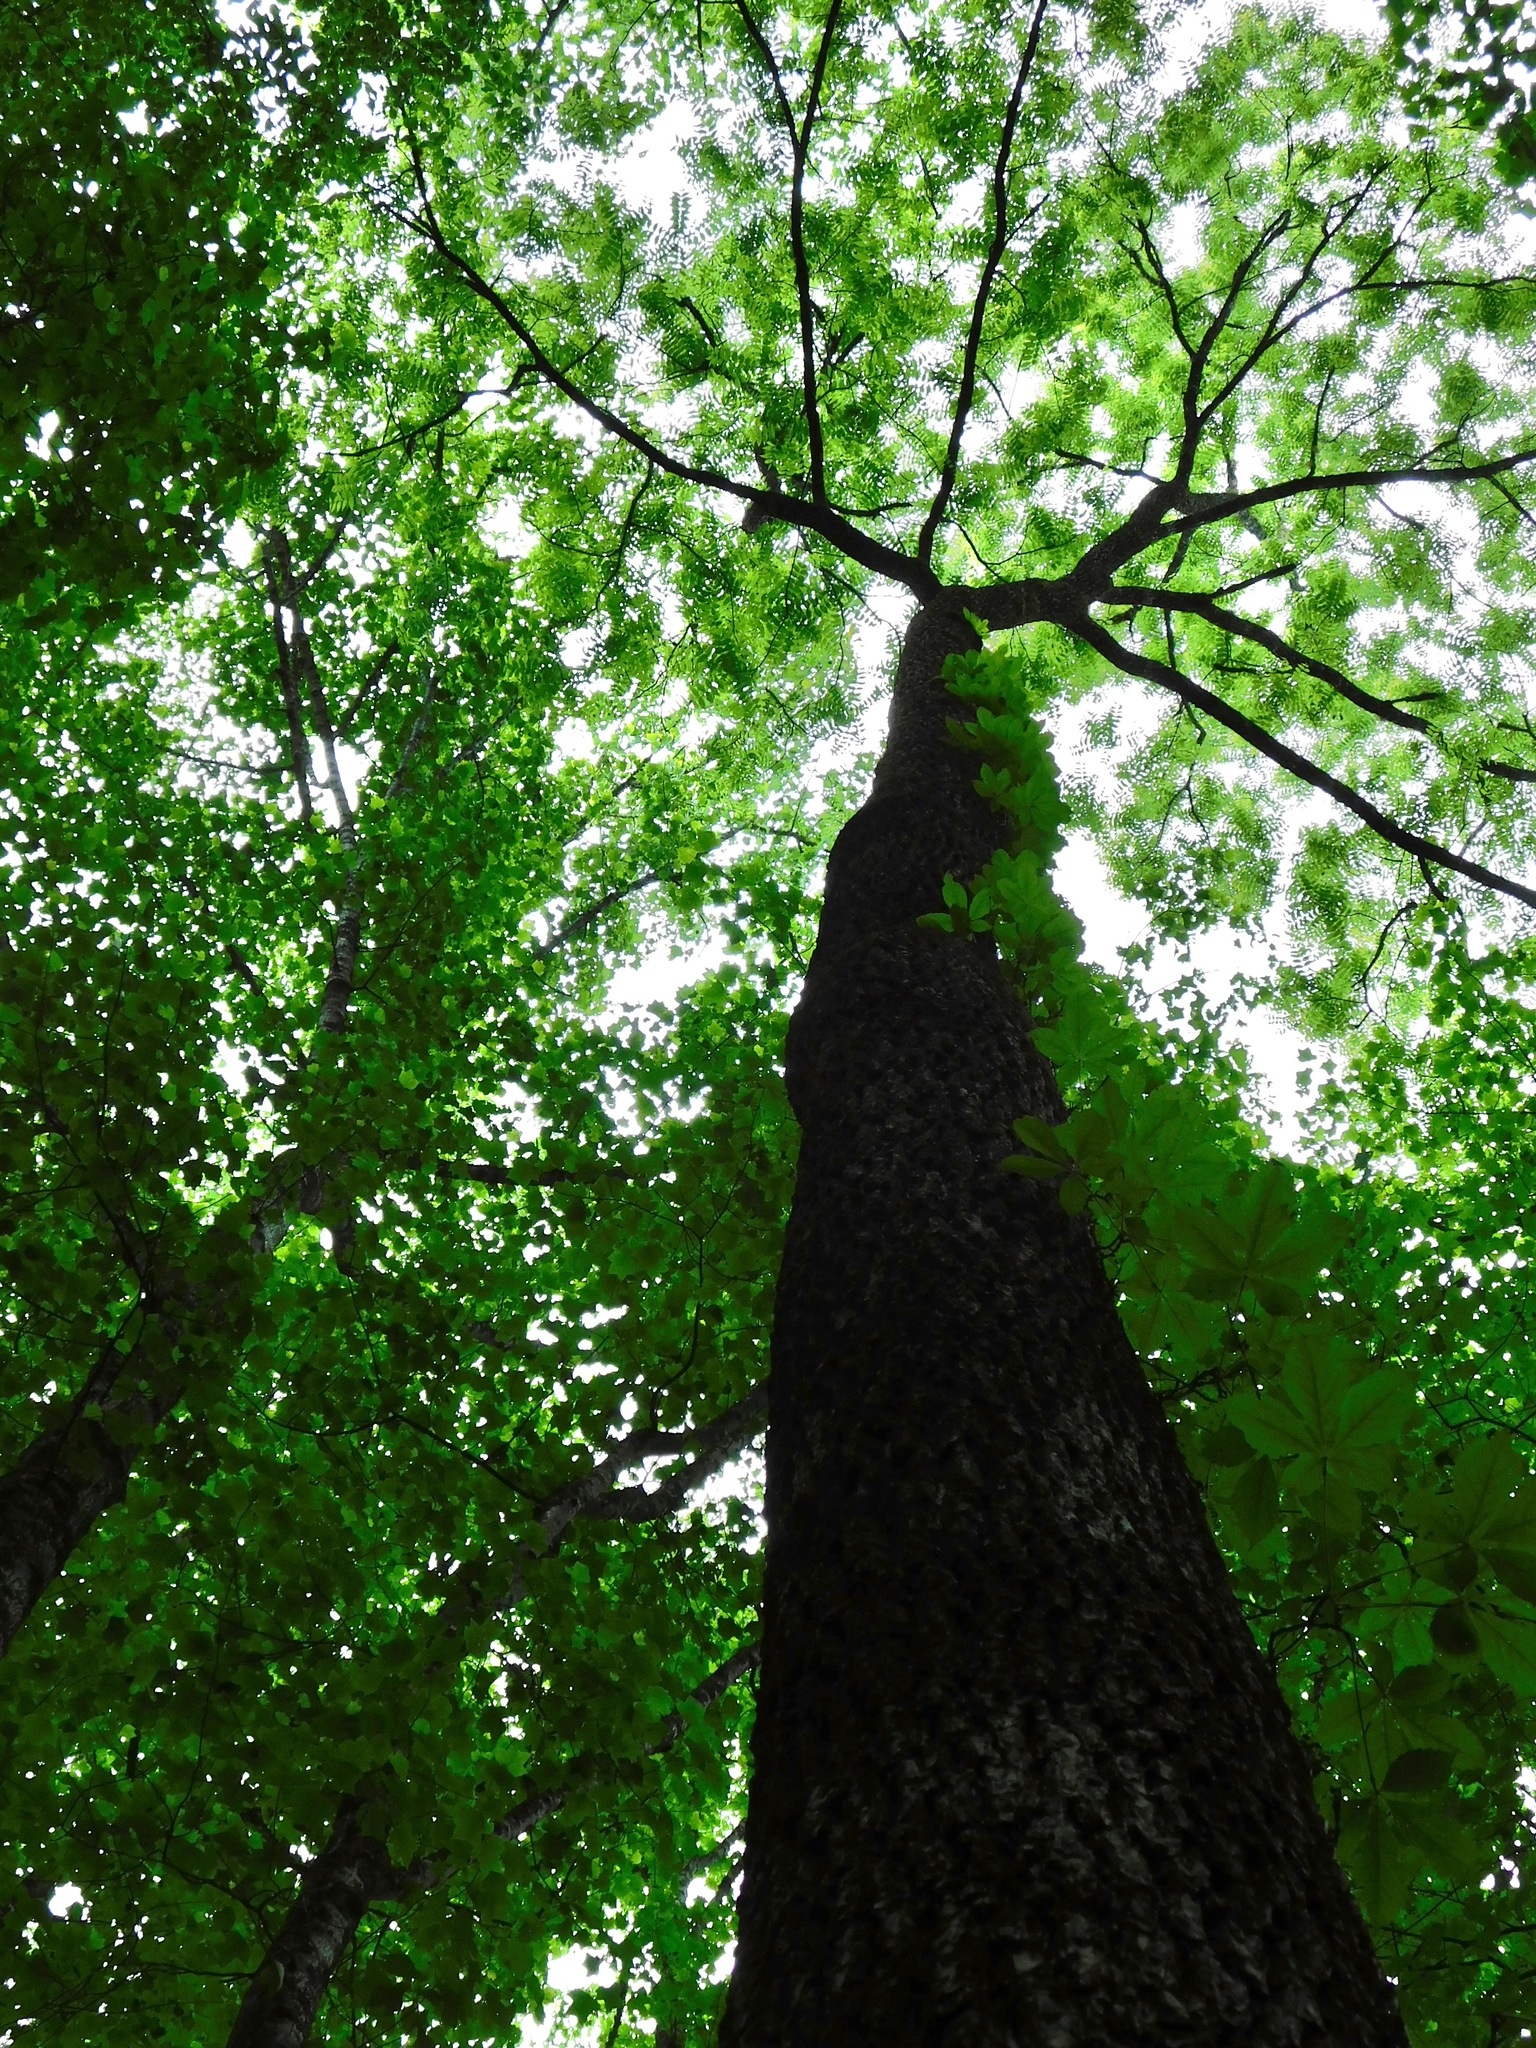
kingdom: Plantae
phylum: Tracheophyta
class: Magnoliopsida
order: Vitales
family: Vitaceae
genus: Parthenocissus
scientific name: Parthenocissus quinquefolia
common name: Virginia-creeper
